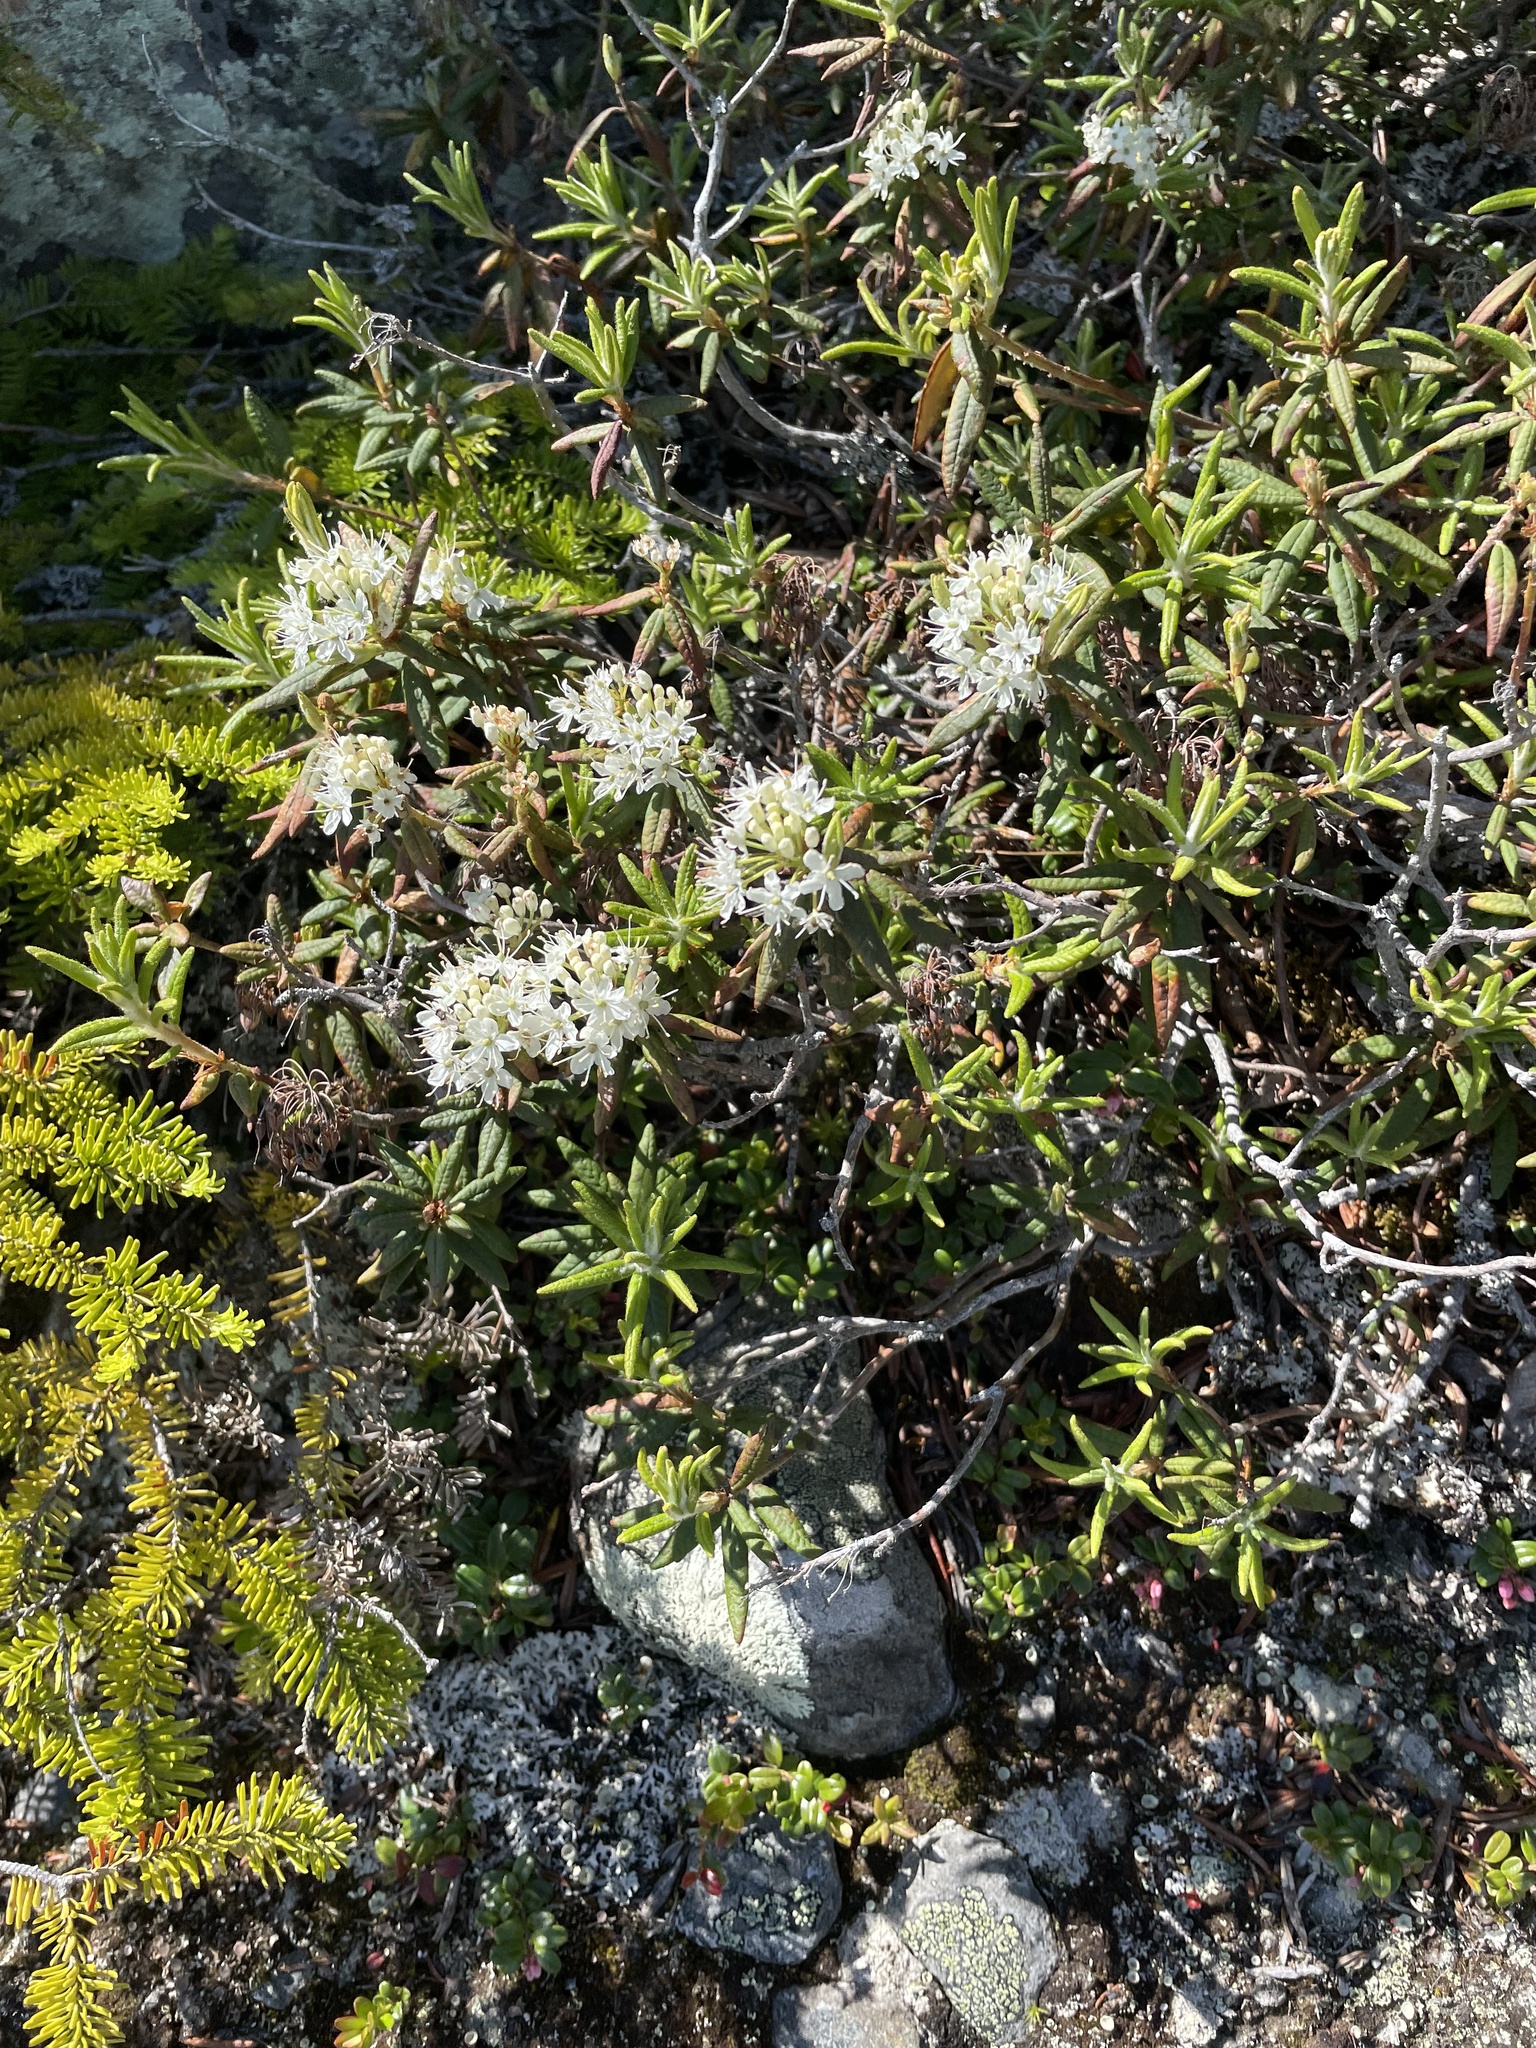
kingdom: Plantae
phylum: Tracheophyta
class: Magnoliopsida
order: Ericales
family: Ericaceae
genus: Rhododendron
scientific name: Rhododendron groenlandicum
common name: Bog labrador tea
